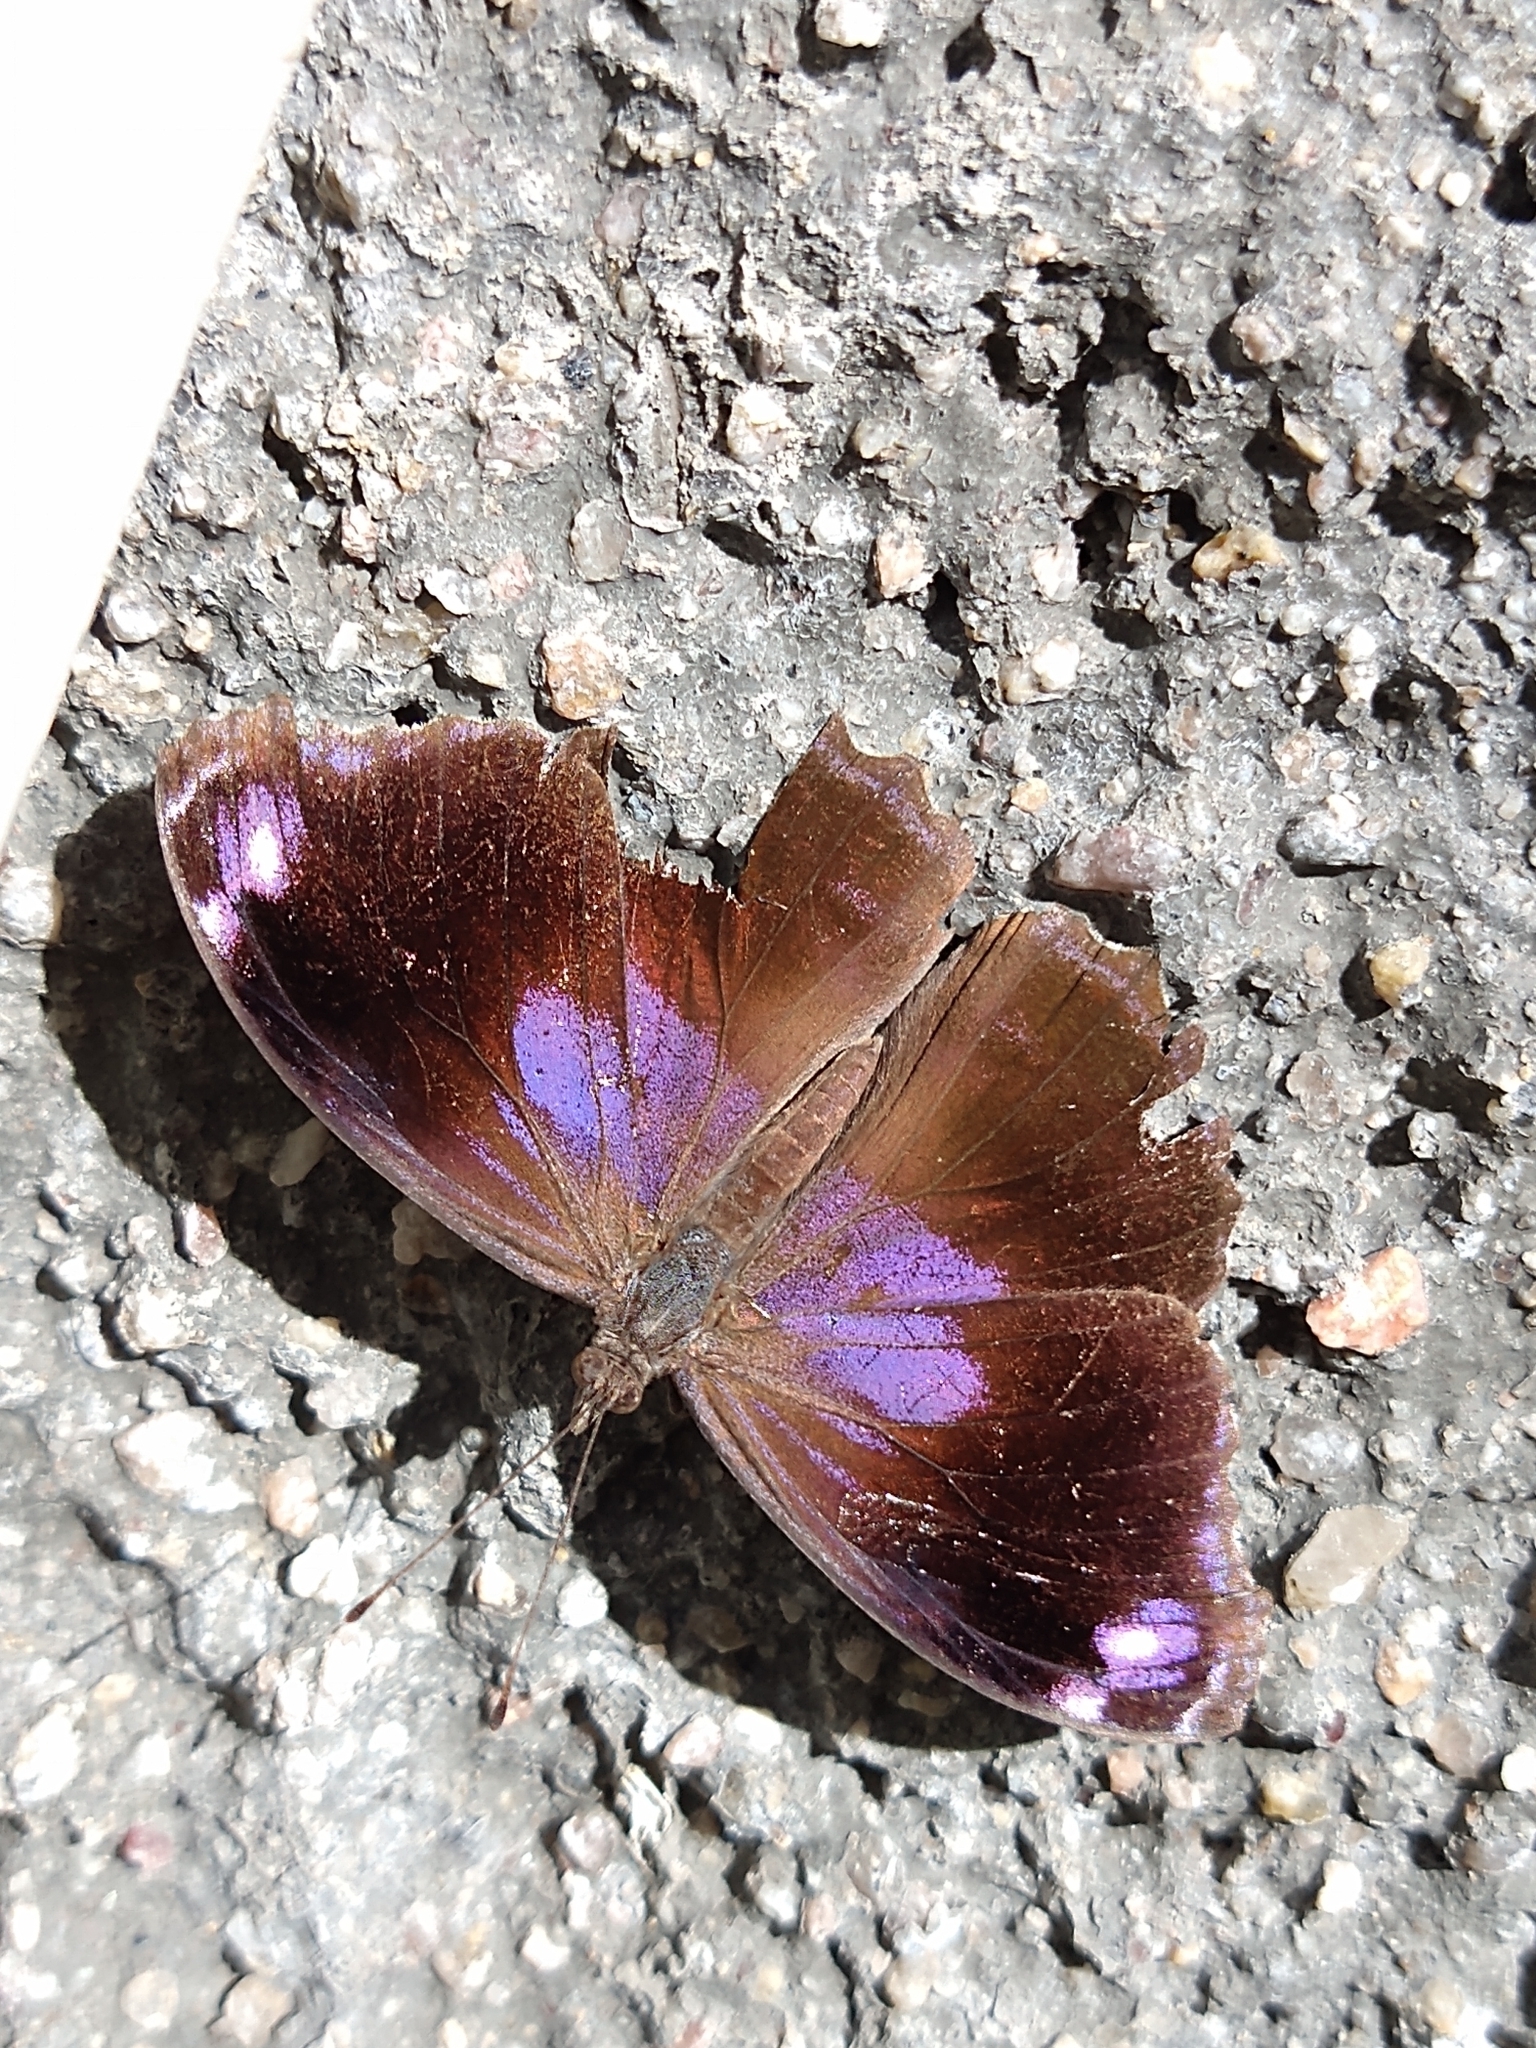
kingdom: Animalia
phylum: Arthropoda
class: Insecta
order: Lepidoptera
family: Nymphalidae
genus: Myscelia
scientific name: Myscelia cyananthe
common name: Blackened bluewing
